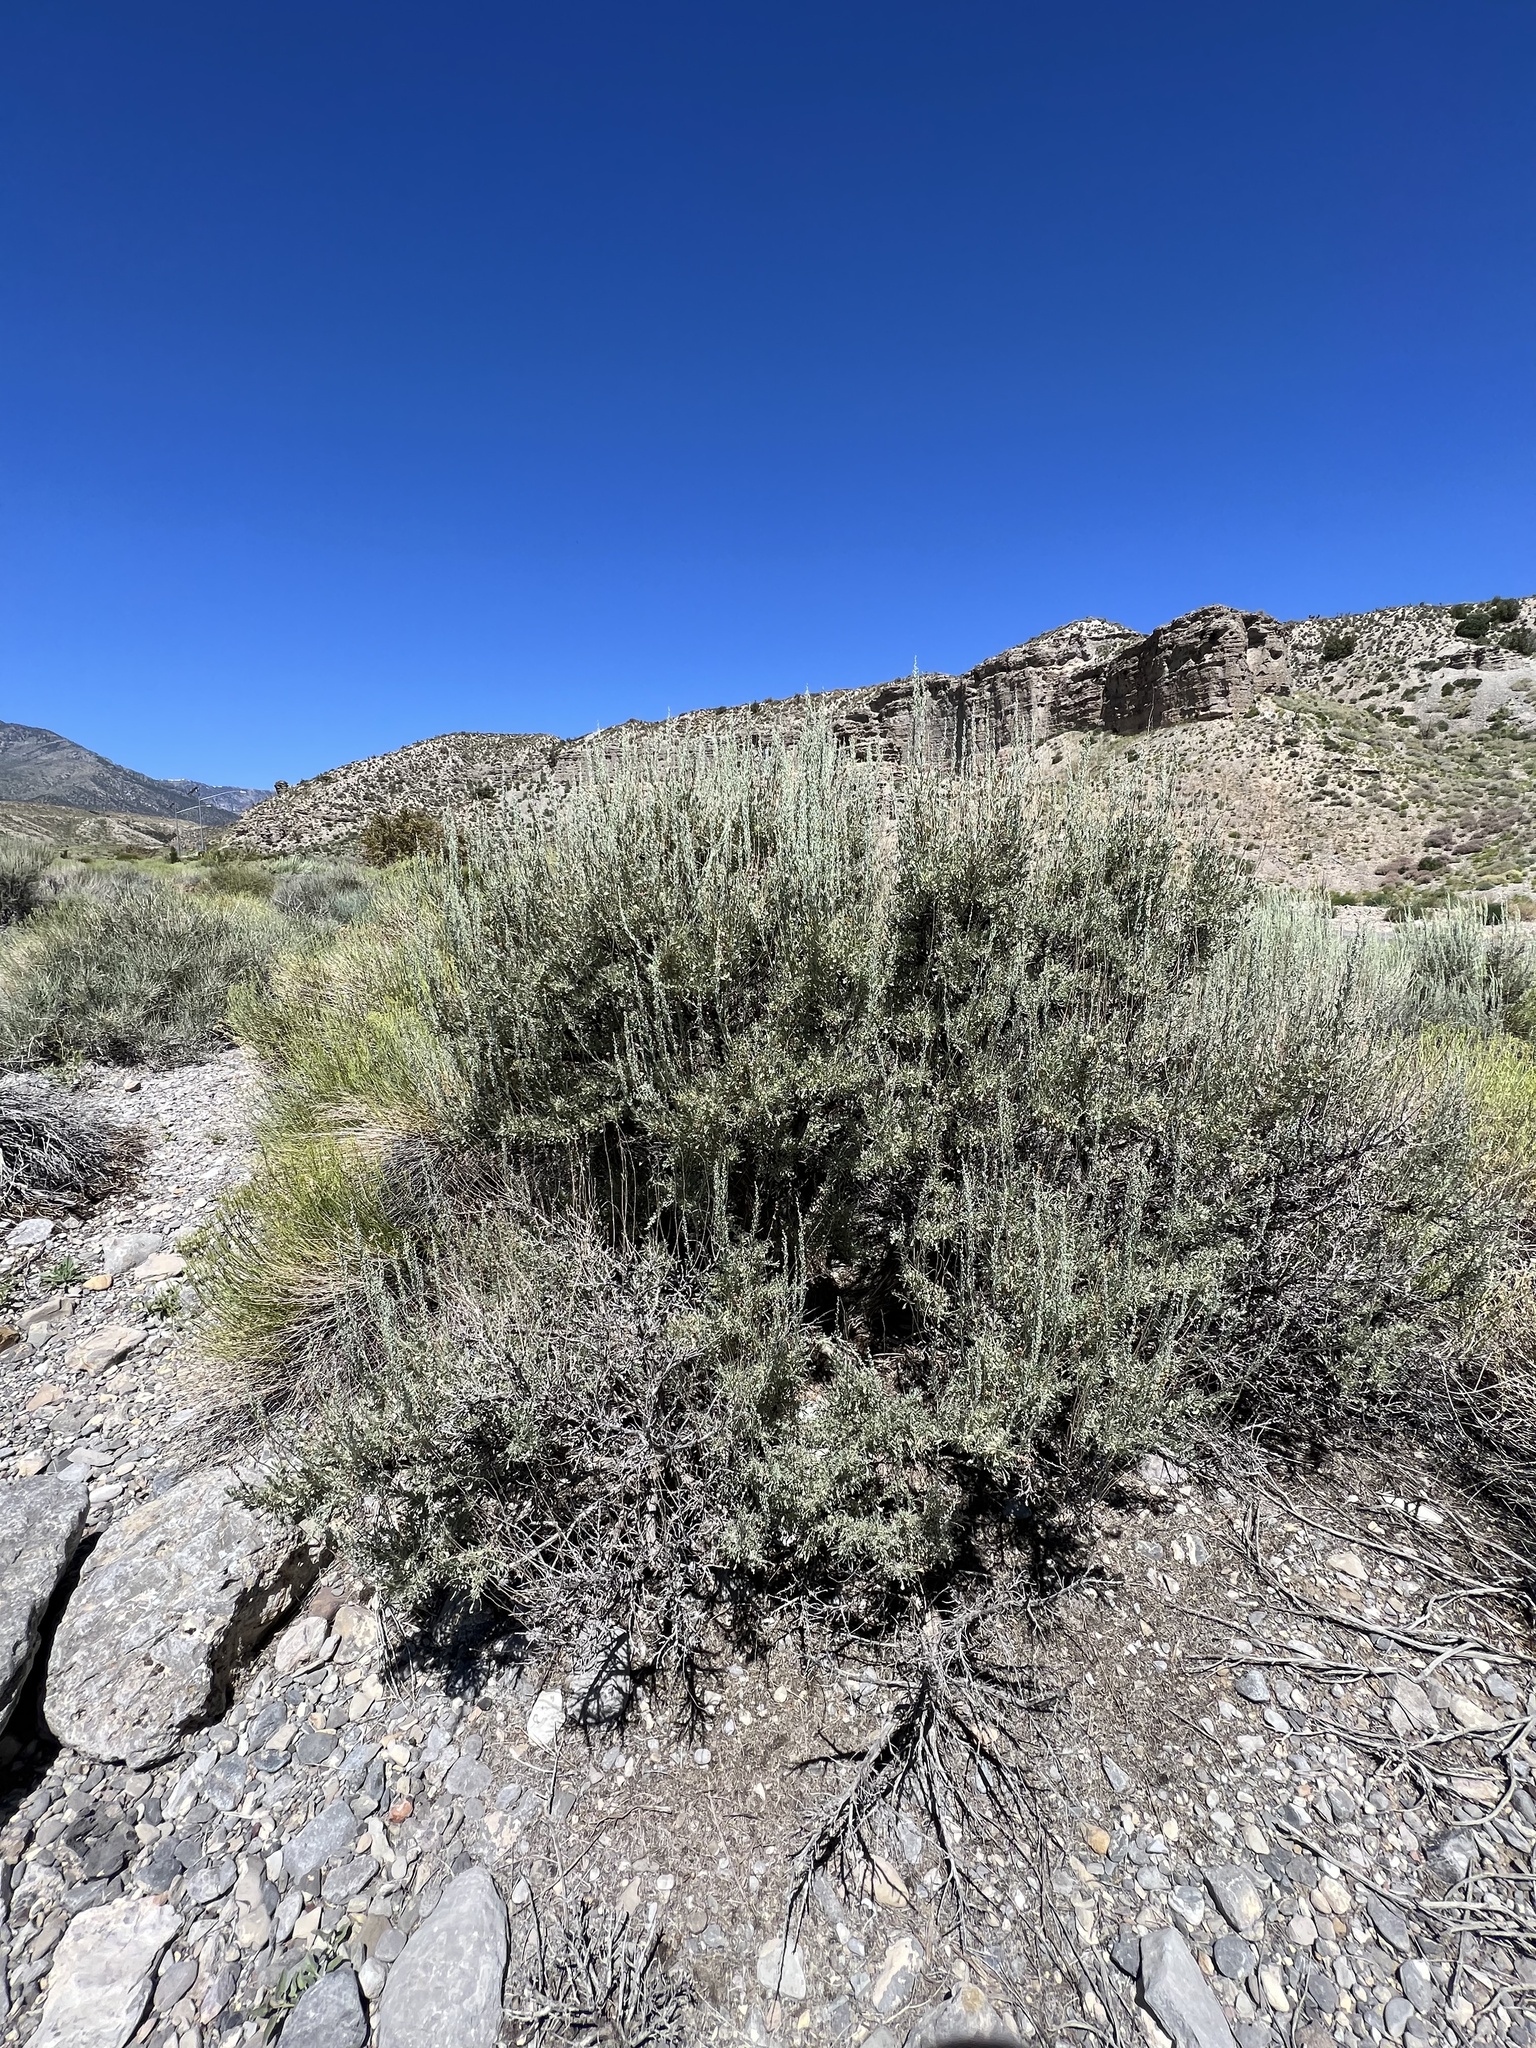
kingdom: Plantae
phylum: Tracheophyta
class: Magnoliopsida
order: Asterales
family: Asteraceae
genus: Artemisia
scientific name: Artemisia tridentata
